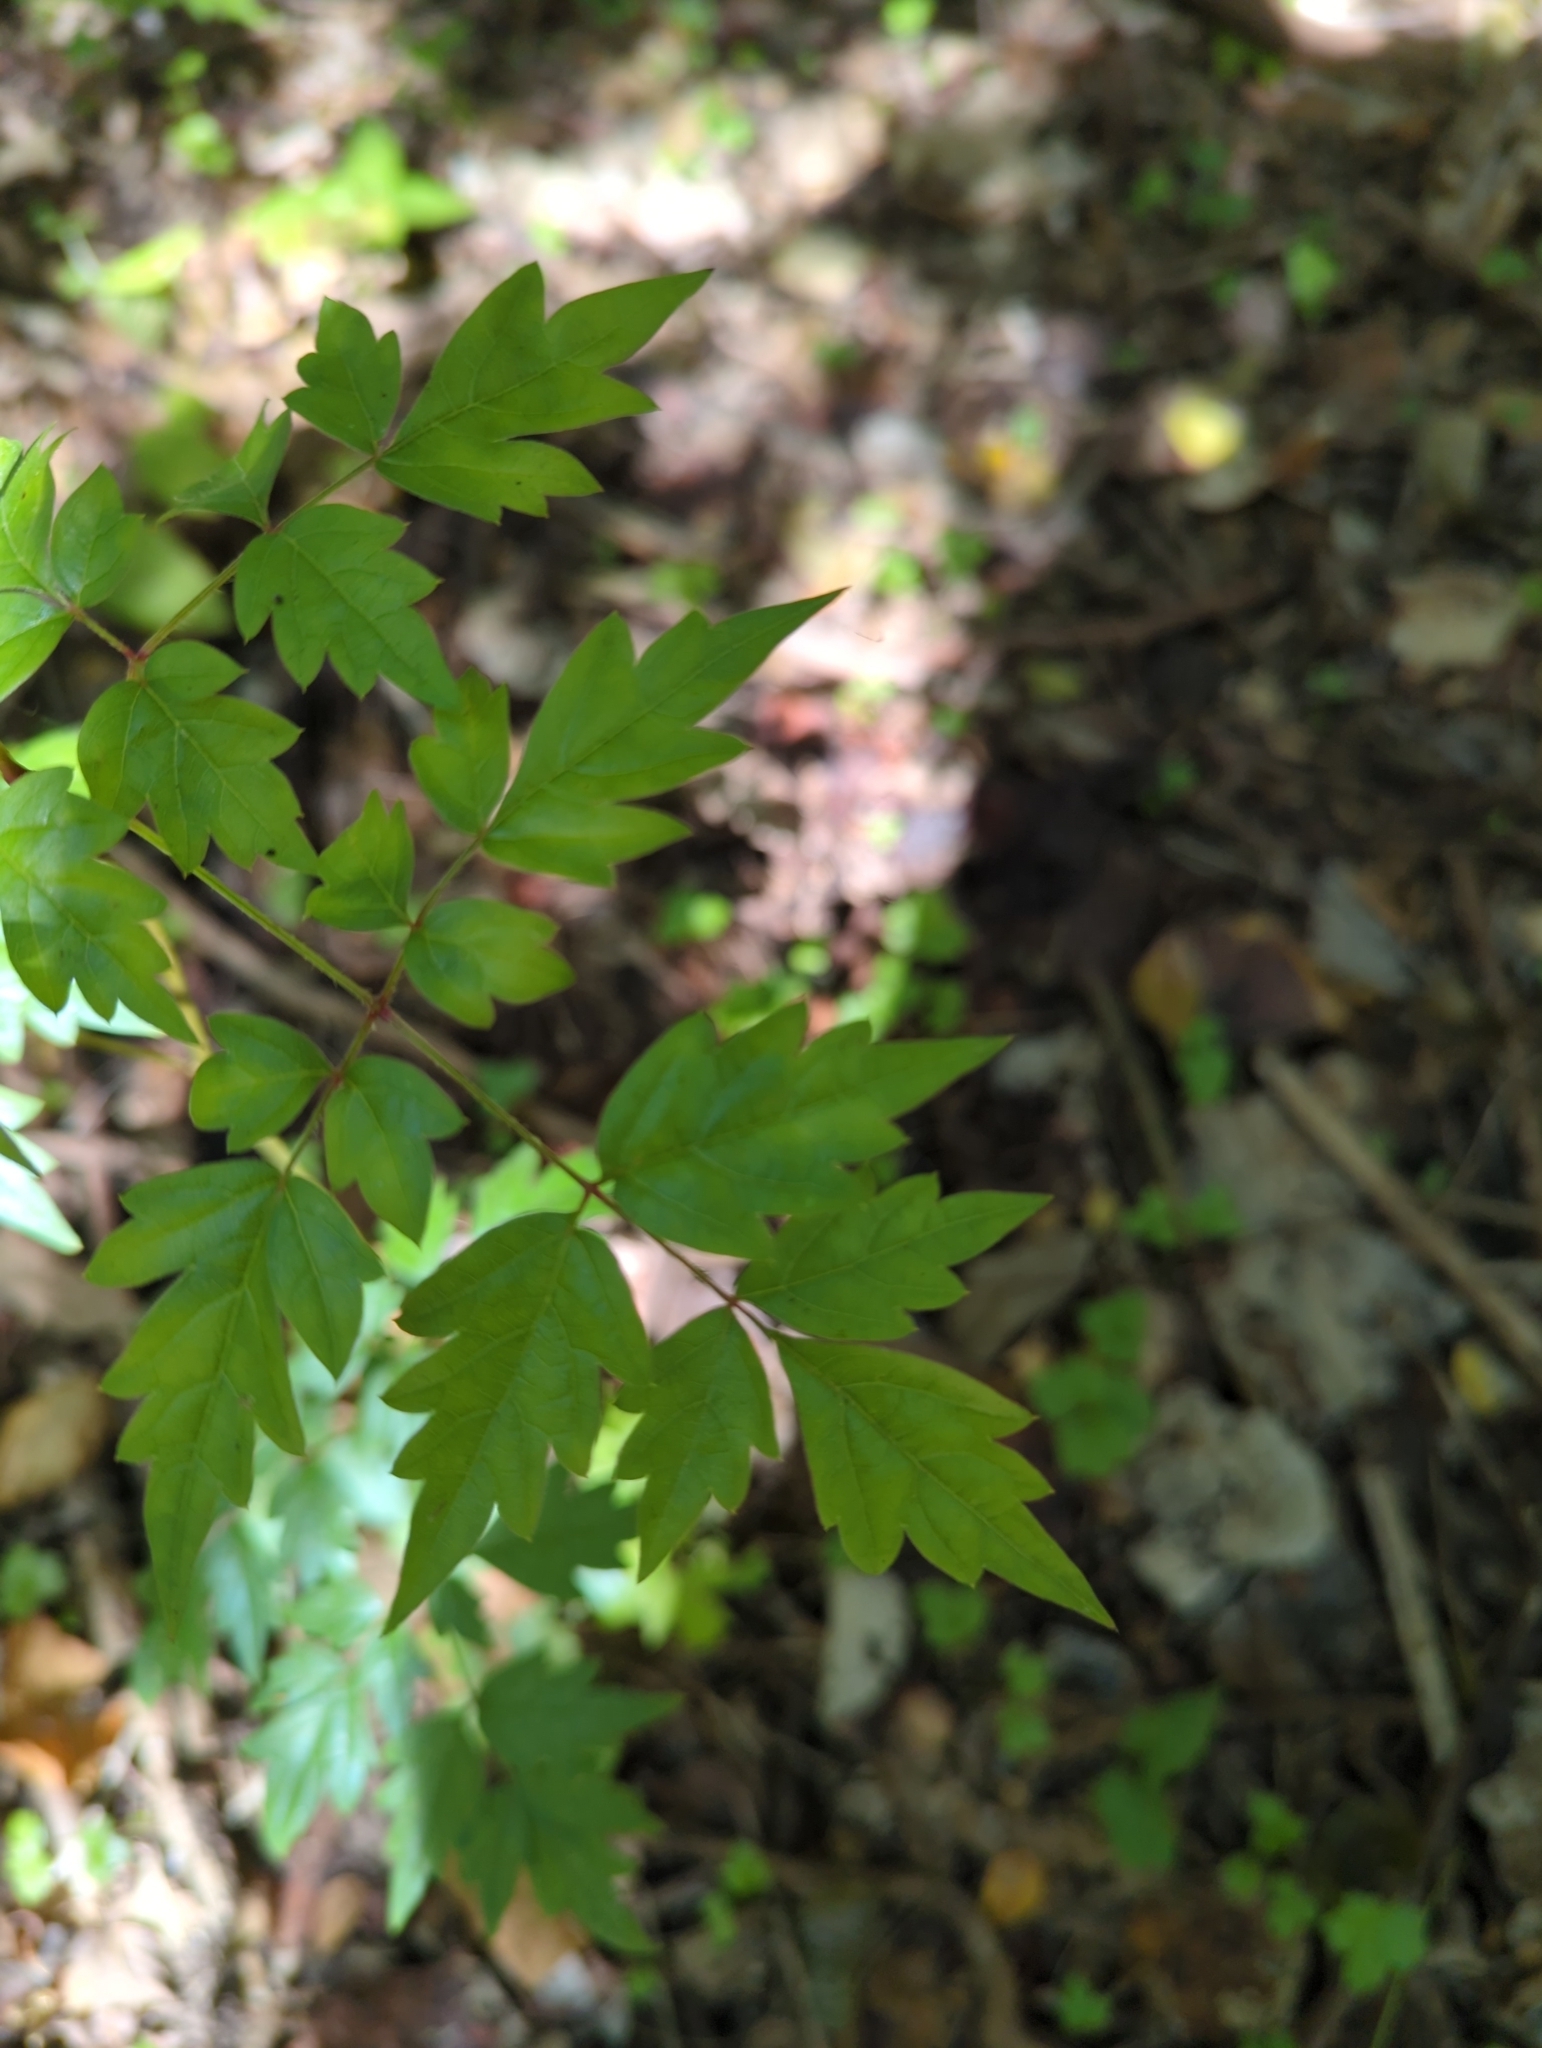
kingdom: Plantae
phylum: Tracheophyta
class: Magnoliopsida
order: Vitales
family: Vitaceae
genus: Nekemias
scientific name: Nekemias arborea
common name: Peppervine
